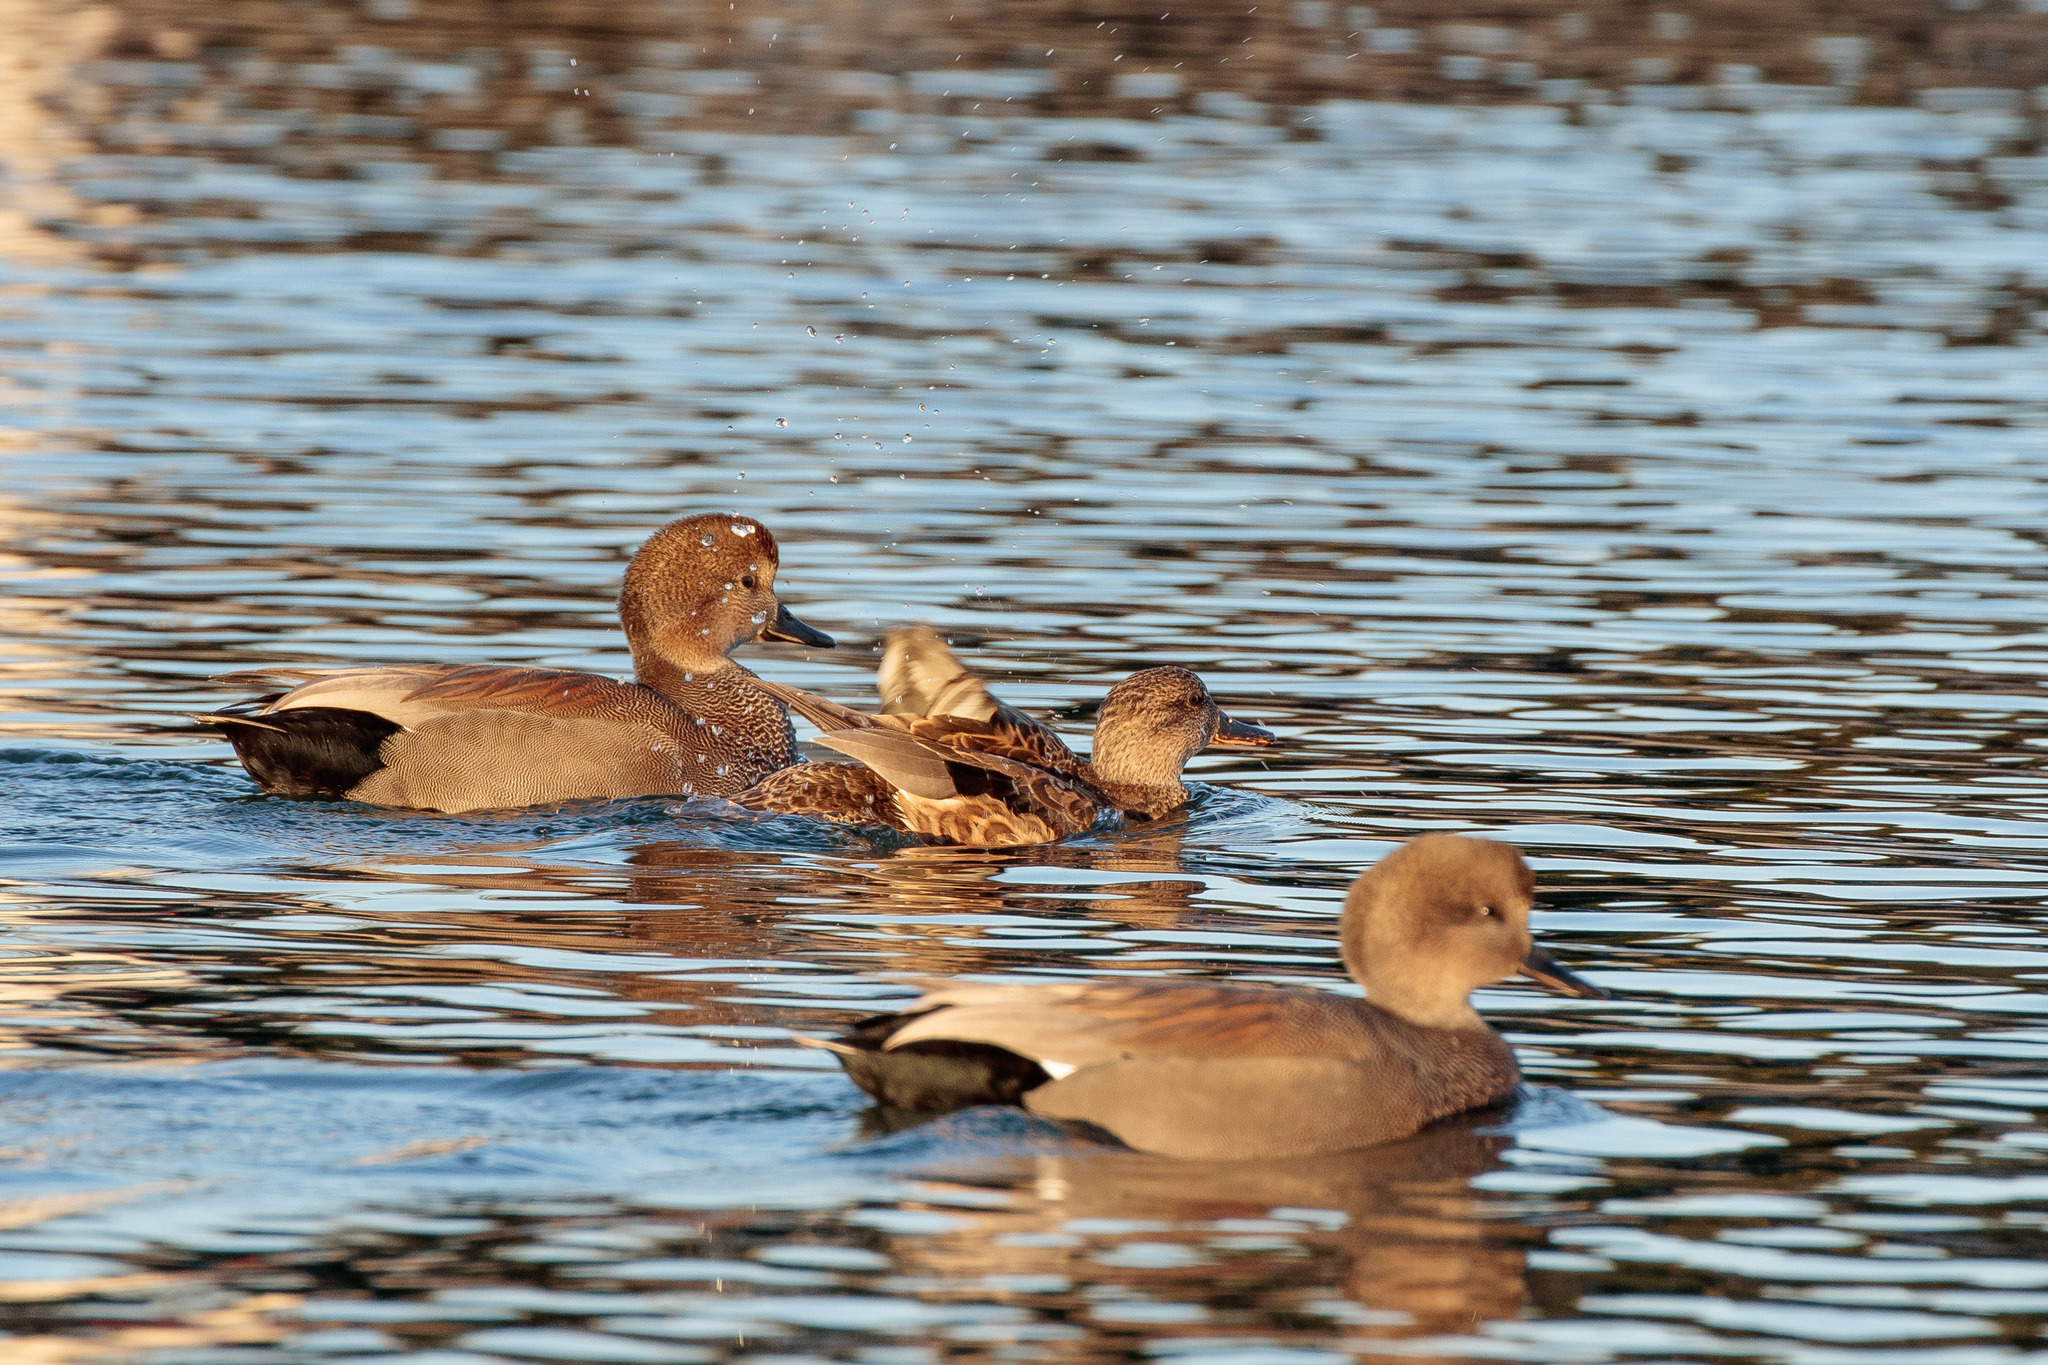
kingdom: Animalia
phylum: Chordata
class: Aves
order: Anseriformes
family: Anatidae
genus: Mareca
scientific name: Mareca strepera
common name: Gadwall
